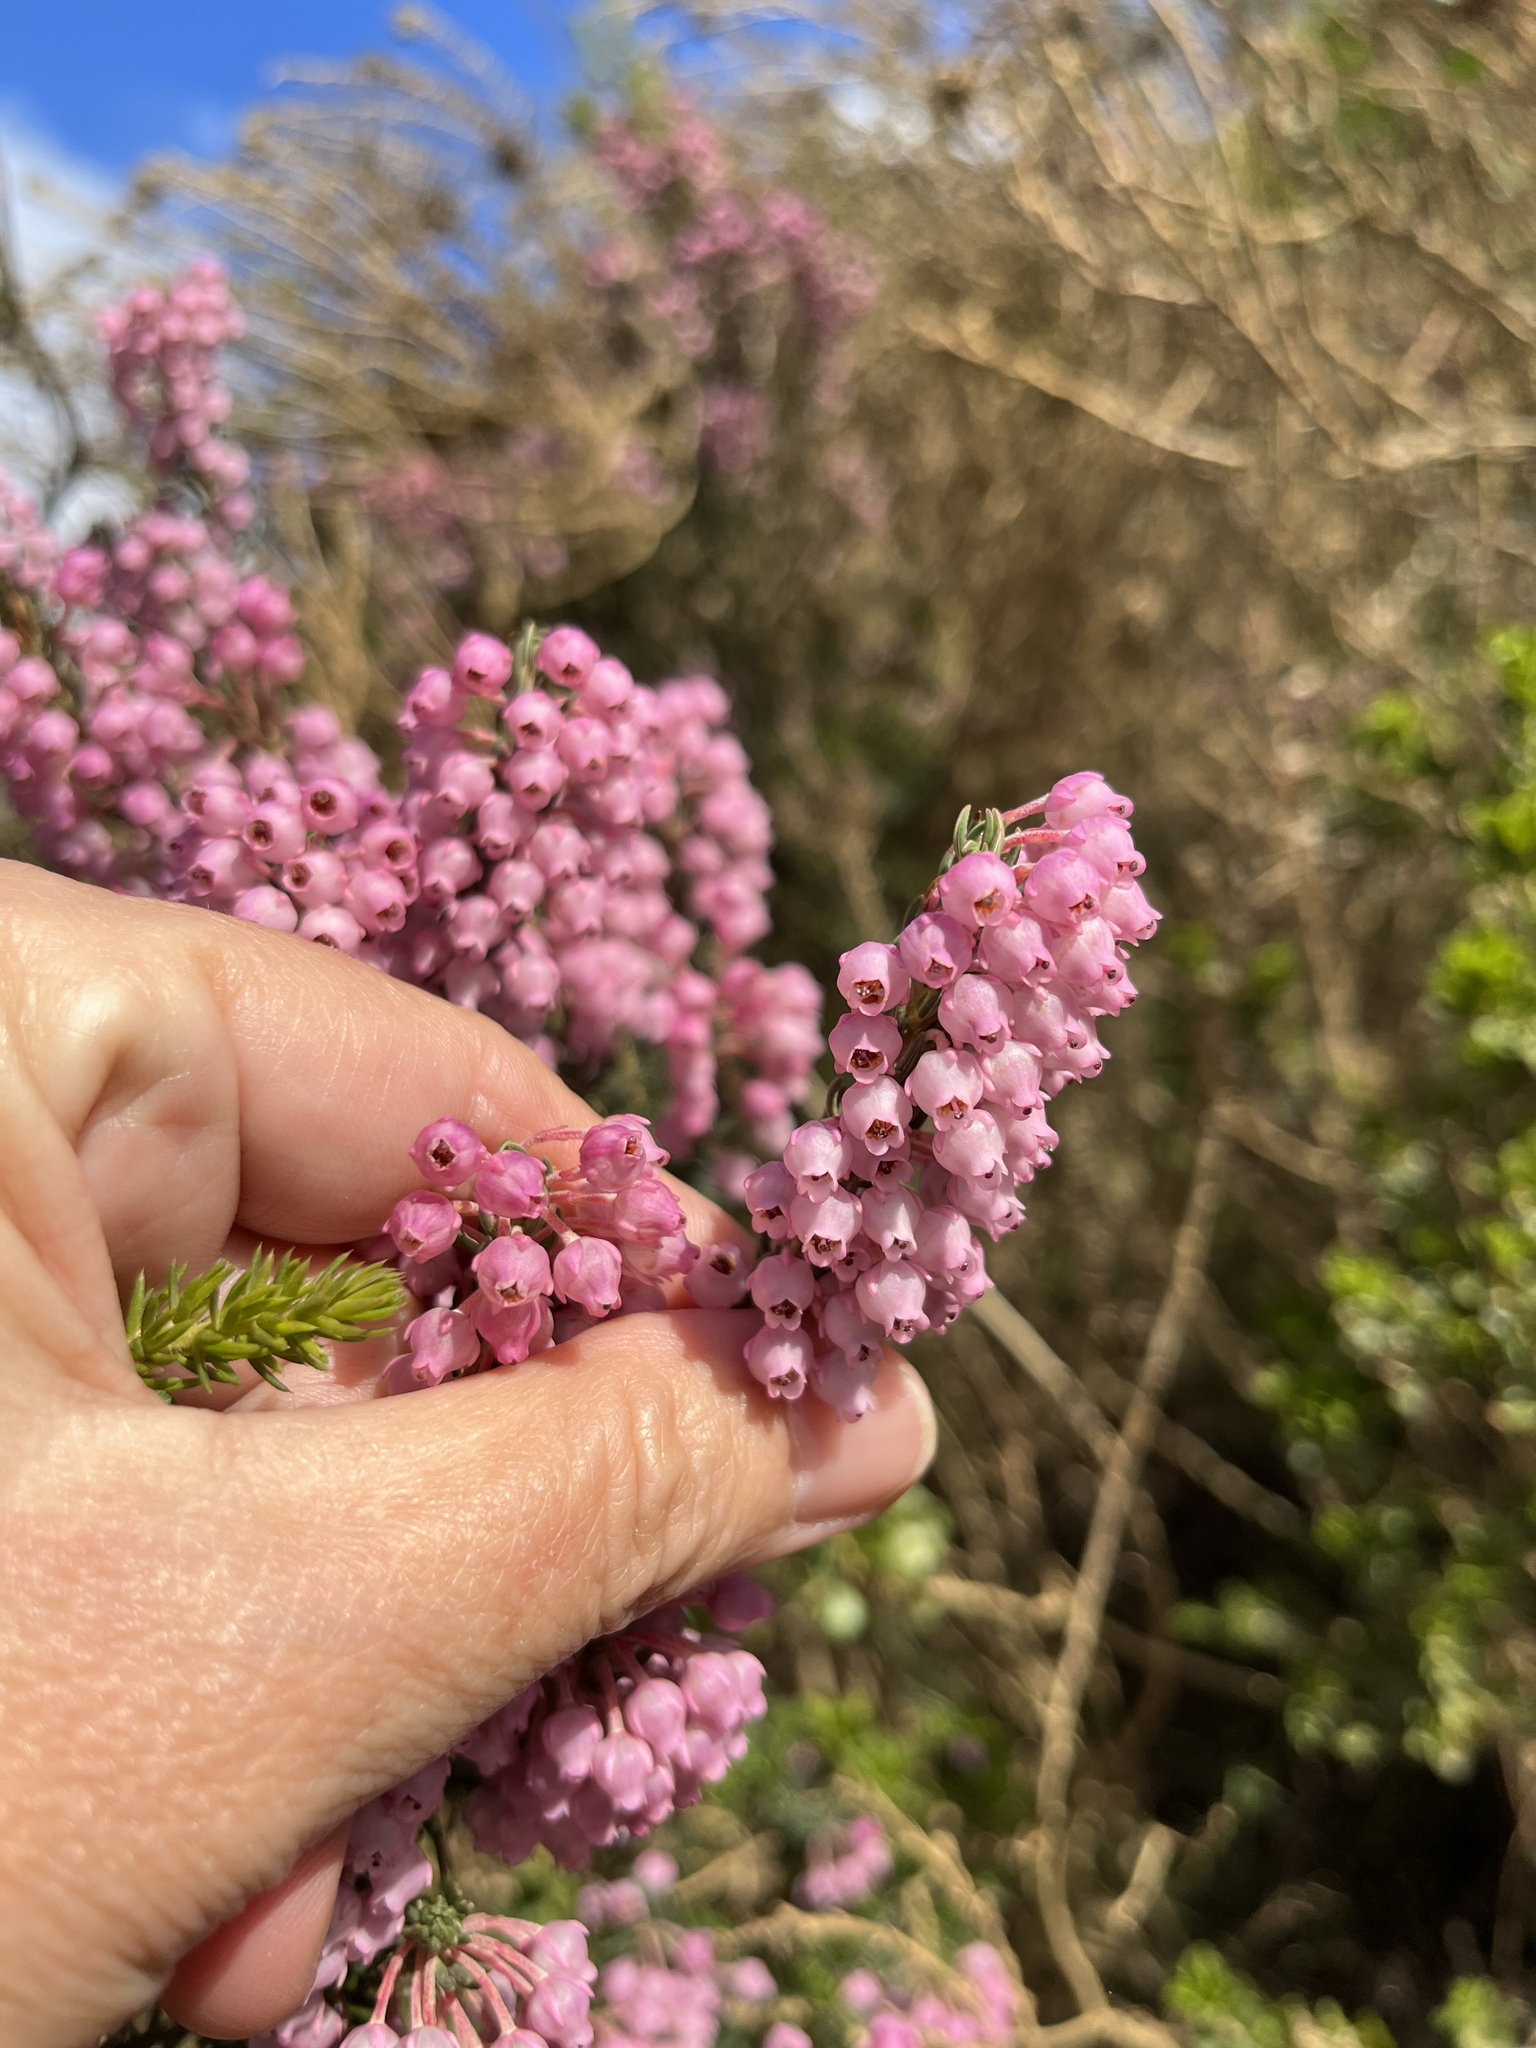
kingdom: Plantae
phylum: Tracheophyta
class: Magnoliopsida
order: Ericales
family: Ericaceae
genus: Erica
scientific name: Erica irregularis
